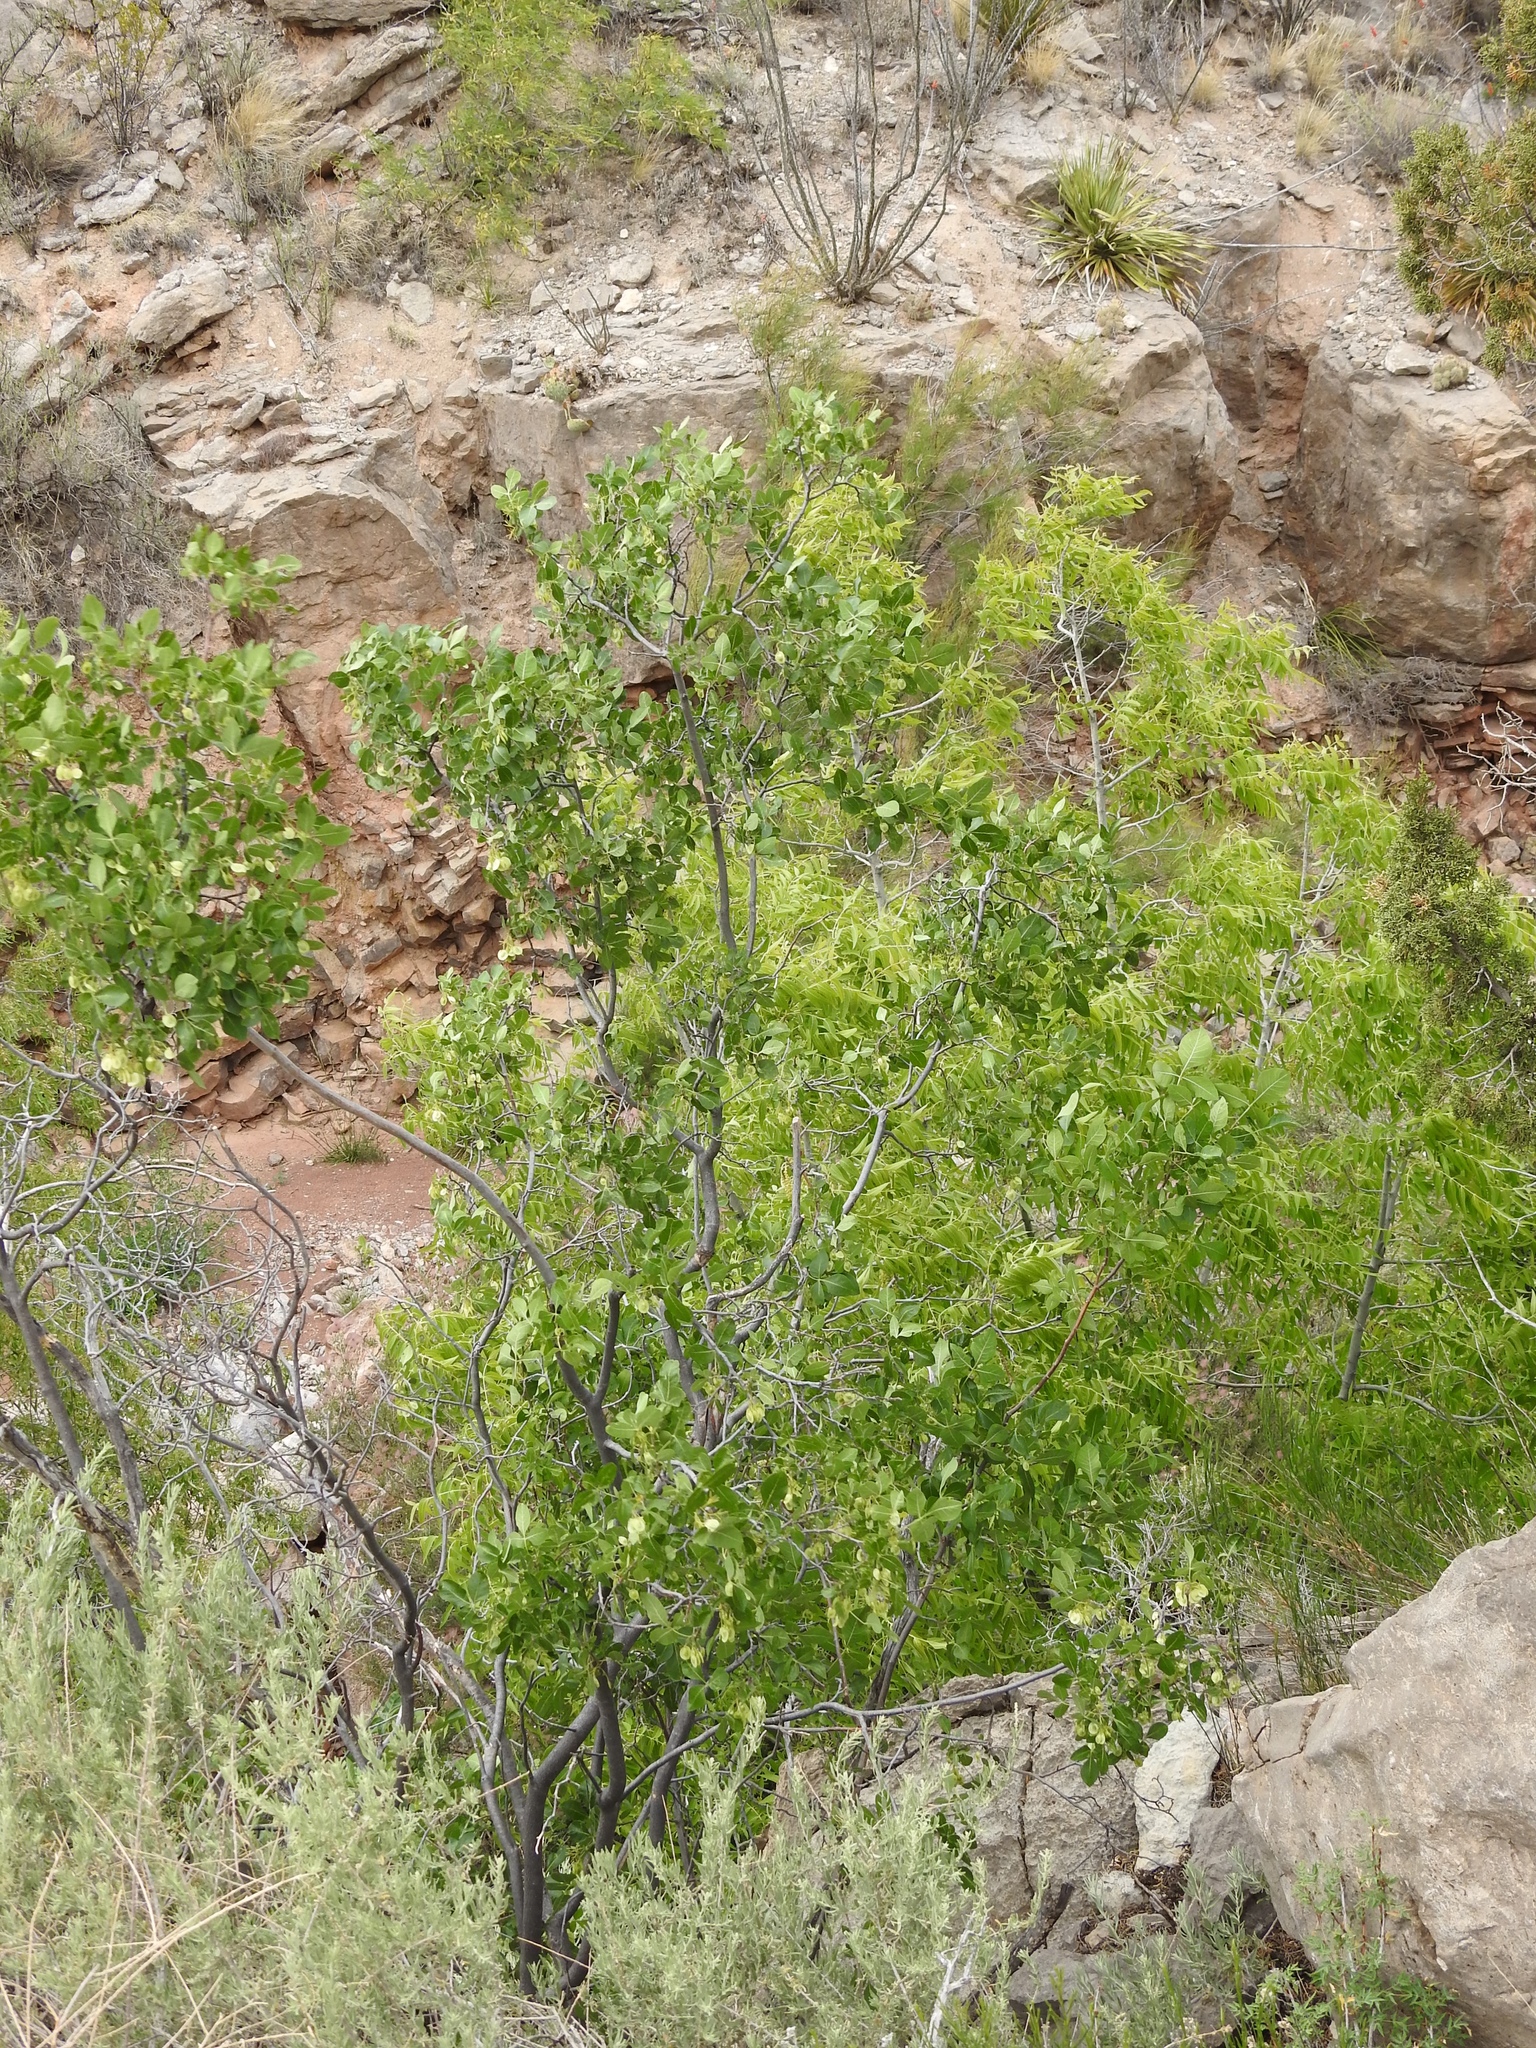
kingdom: Plantae
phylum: Tracheophyta
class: Magnoliopsida
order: Sapindales
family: Rutaceae
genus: Ptelea
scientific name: Ptelea trifoliata
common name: Common hop-tree
